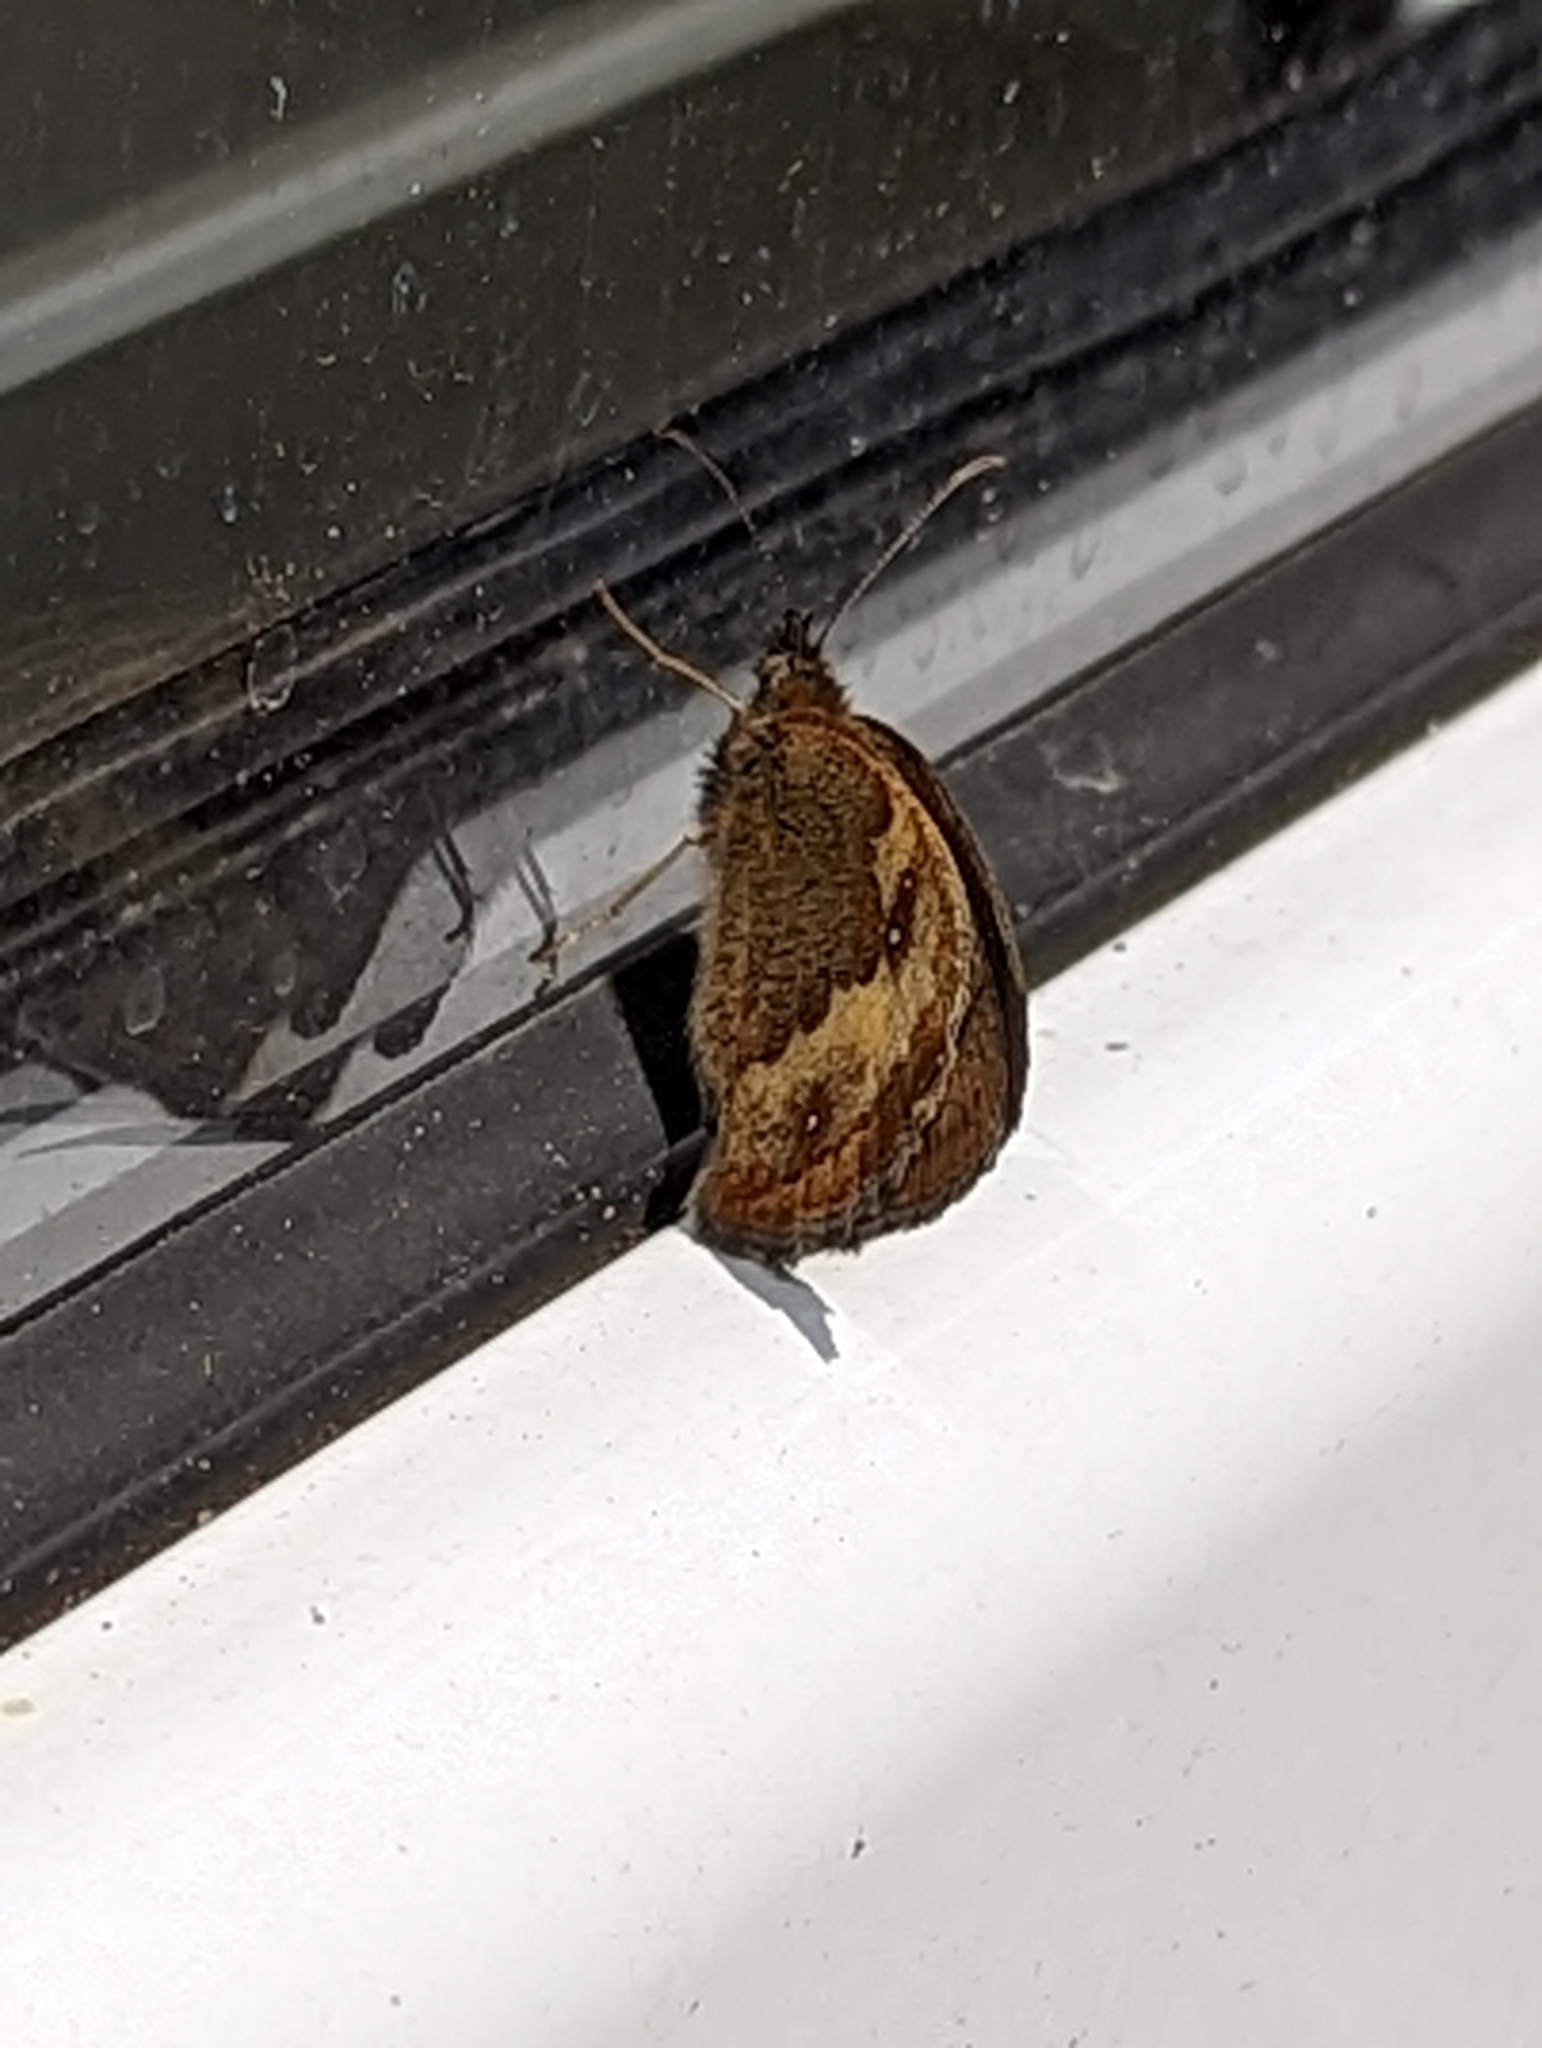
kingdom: Animalia
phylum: Arthropoda
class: Insecta
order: Lepidoptera
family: Nymphalidae
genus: Pyronia
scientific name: Pyronia tithonus
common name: Gatekeeper
